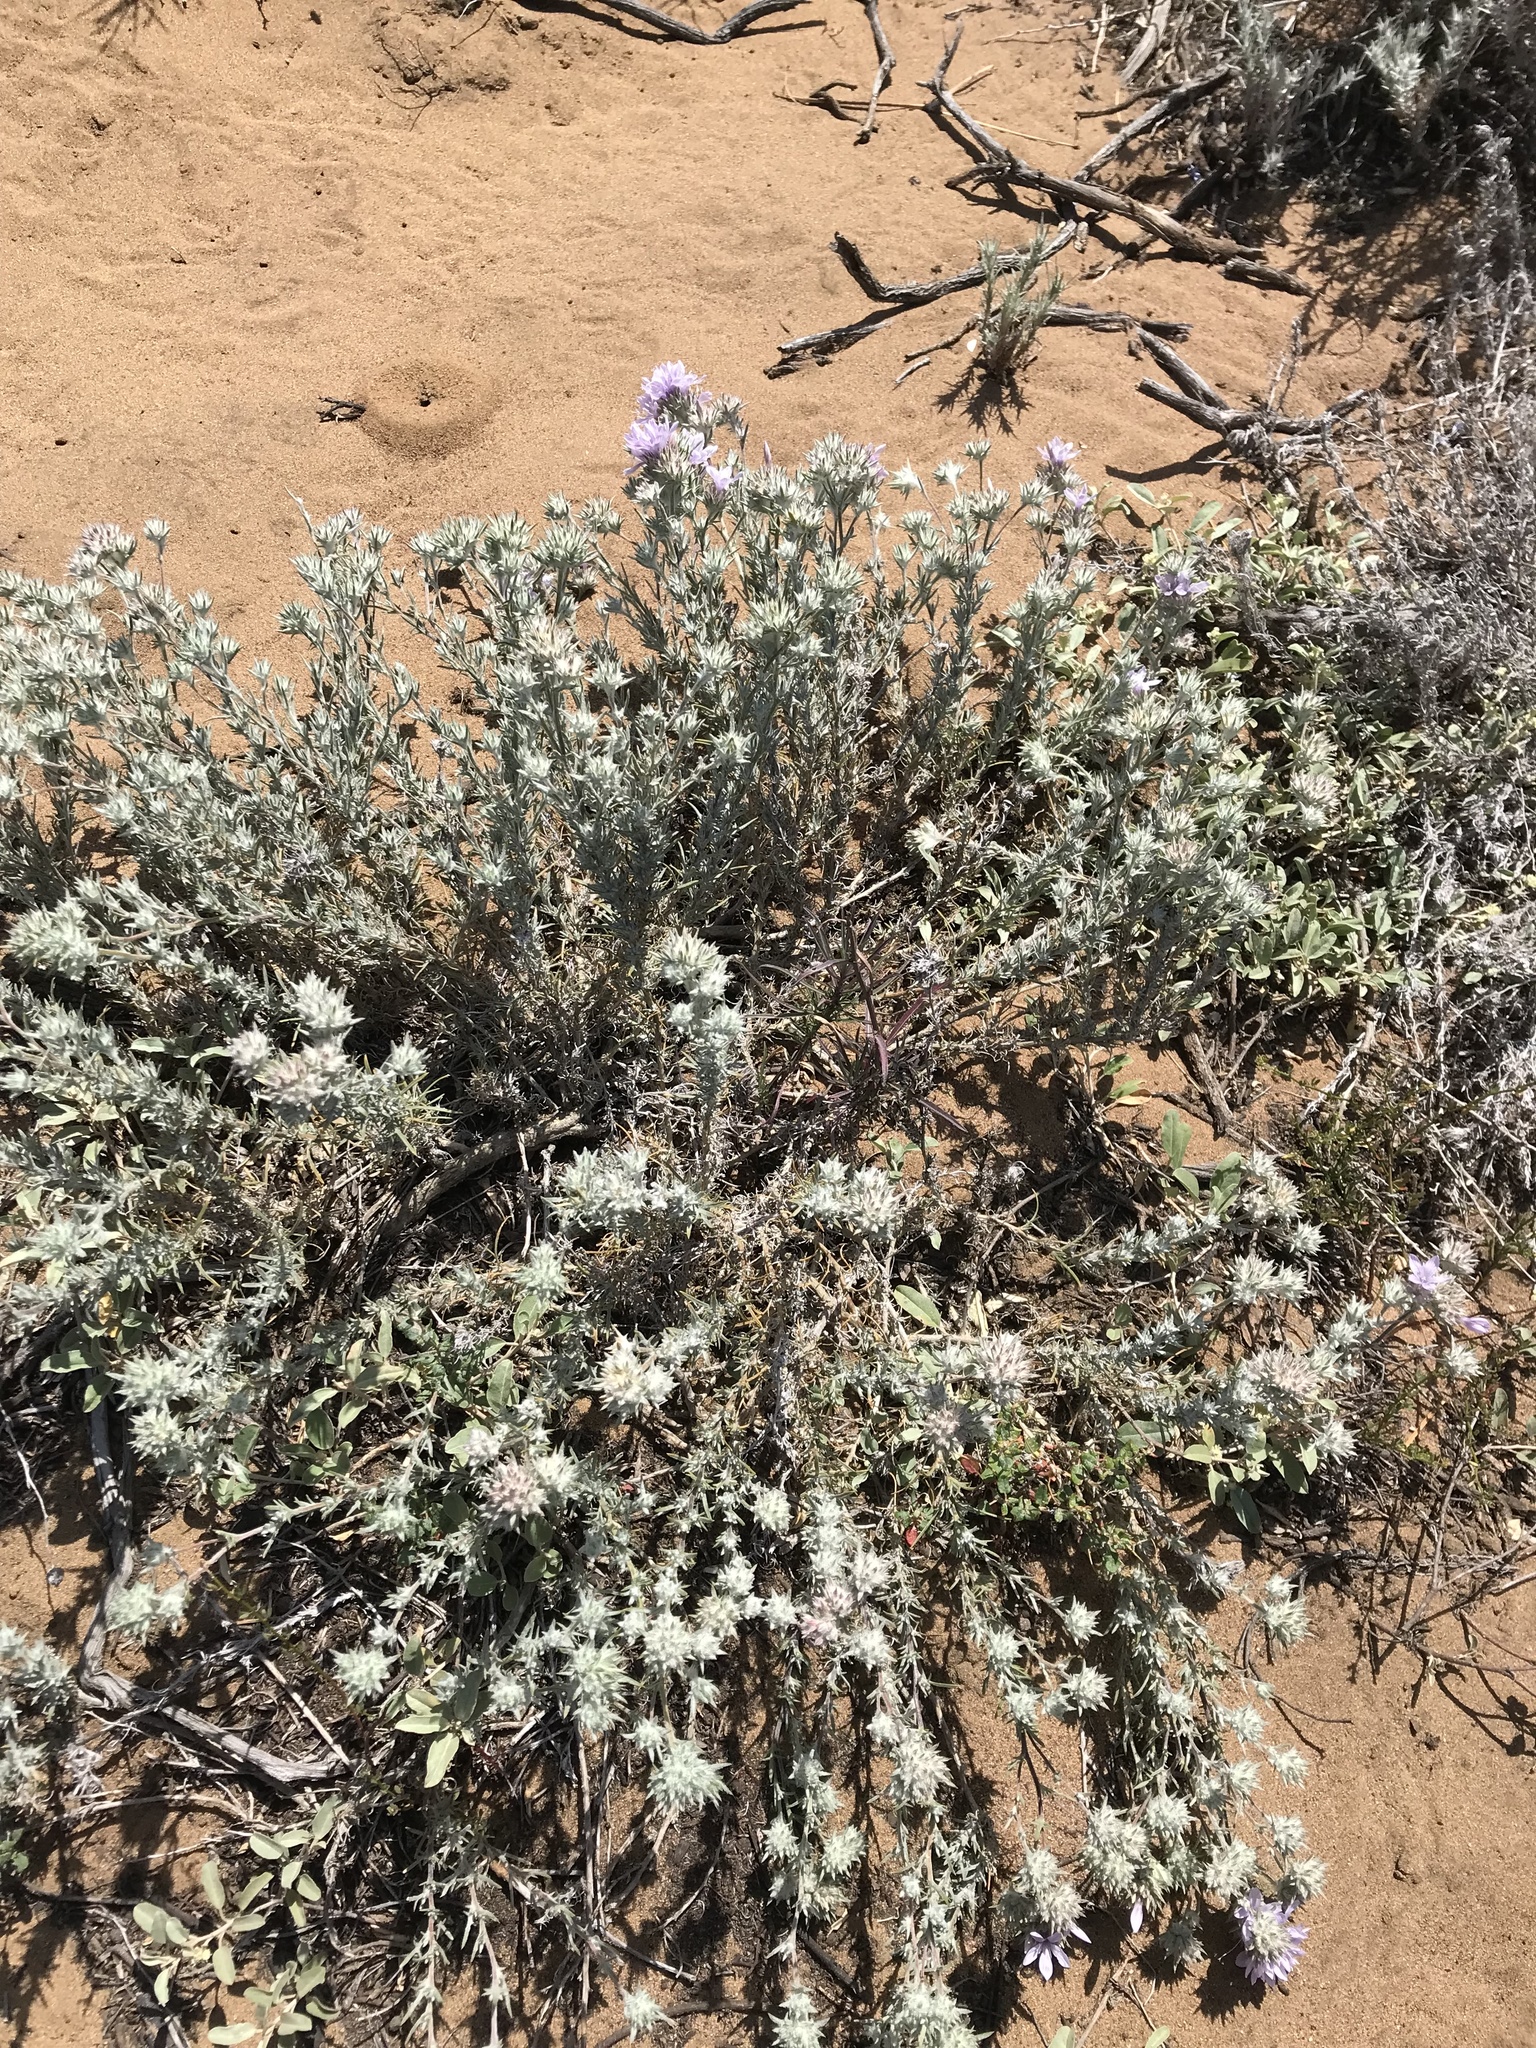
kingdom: Plantae
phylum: Tracheophyta
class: Magnoliopsida
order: Ericales
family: Polemoniaceae
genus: Eriastrum
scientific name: Eriastrum densifolium
